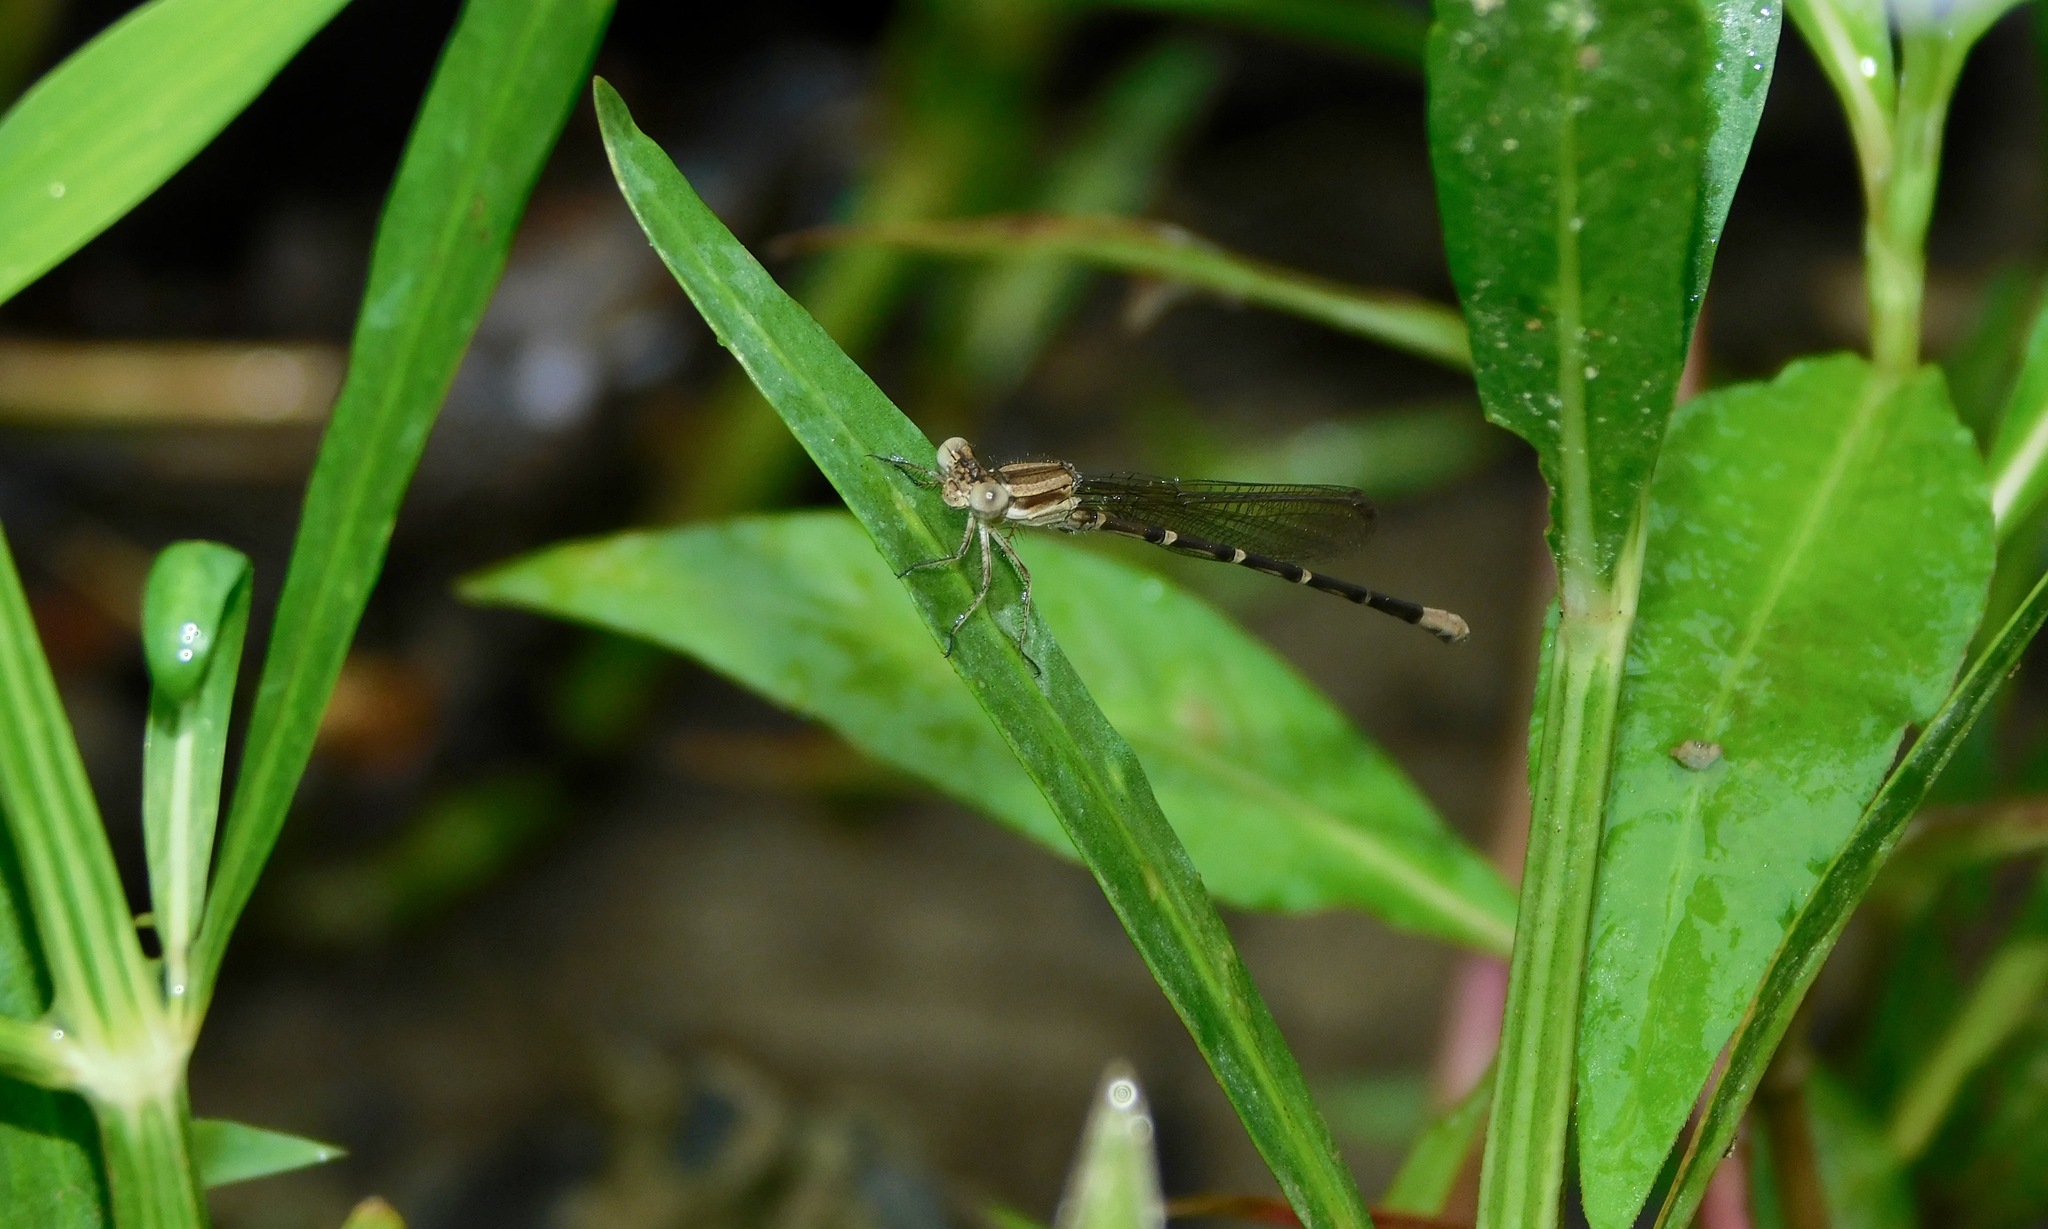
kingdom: Animalia
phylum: Arthropoda
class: Insecta
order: Odonata
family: Coenagrionidae
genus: Argia
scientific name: Argia sedula
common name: Blue-ringed dancer
